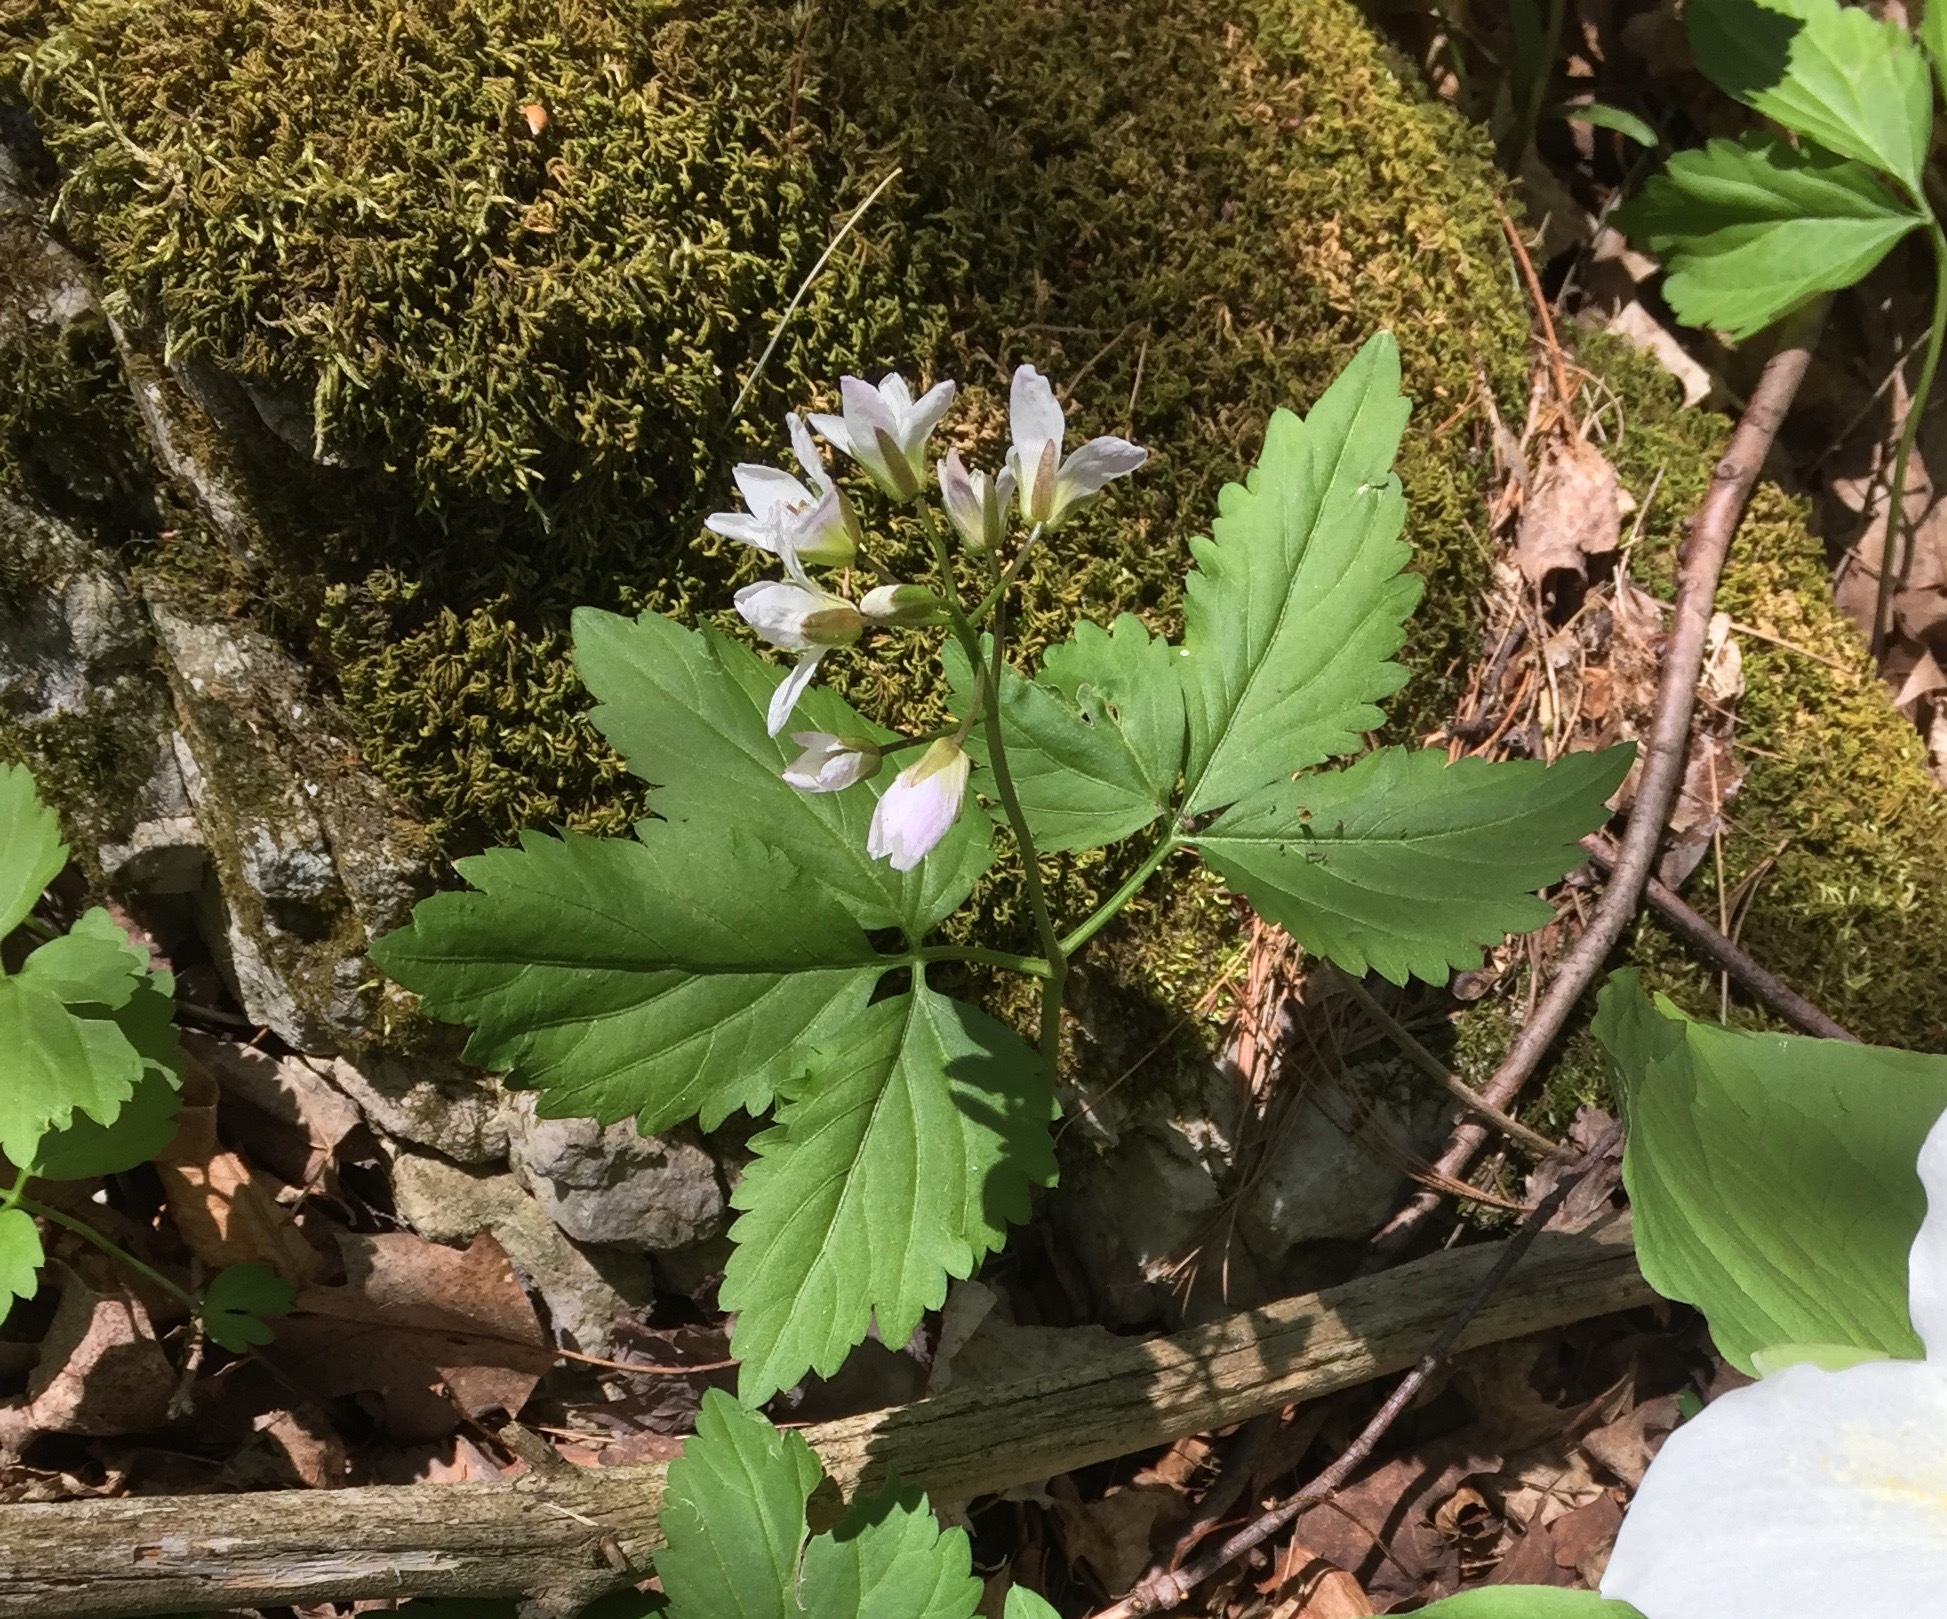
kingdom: Plantae
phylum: Tracheophyta
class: Magnoliopsida
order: Brassicales
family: Brassicaceae
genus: Cardamine
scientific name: Cardamine diphylla
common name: Broad-leaved toothwort
